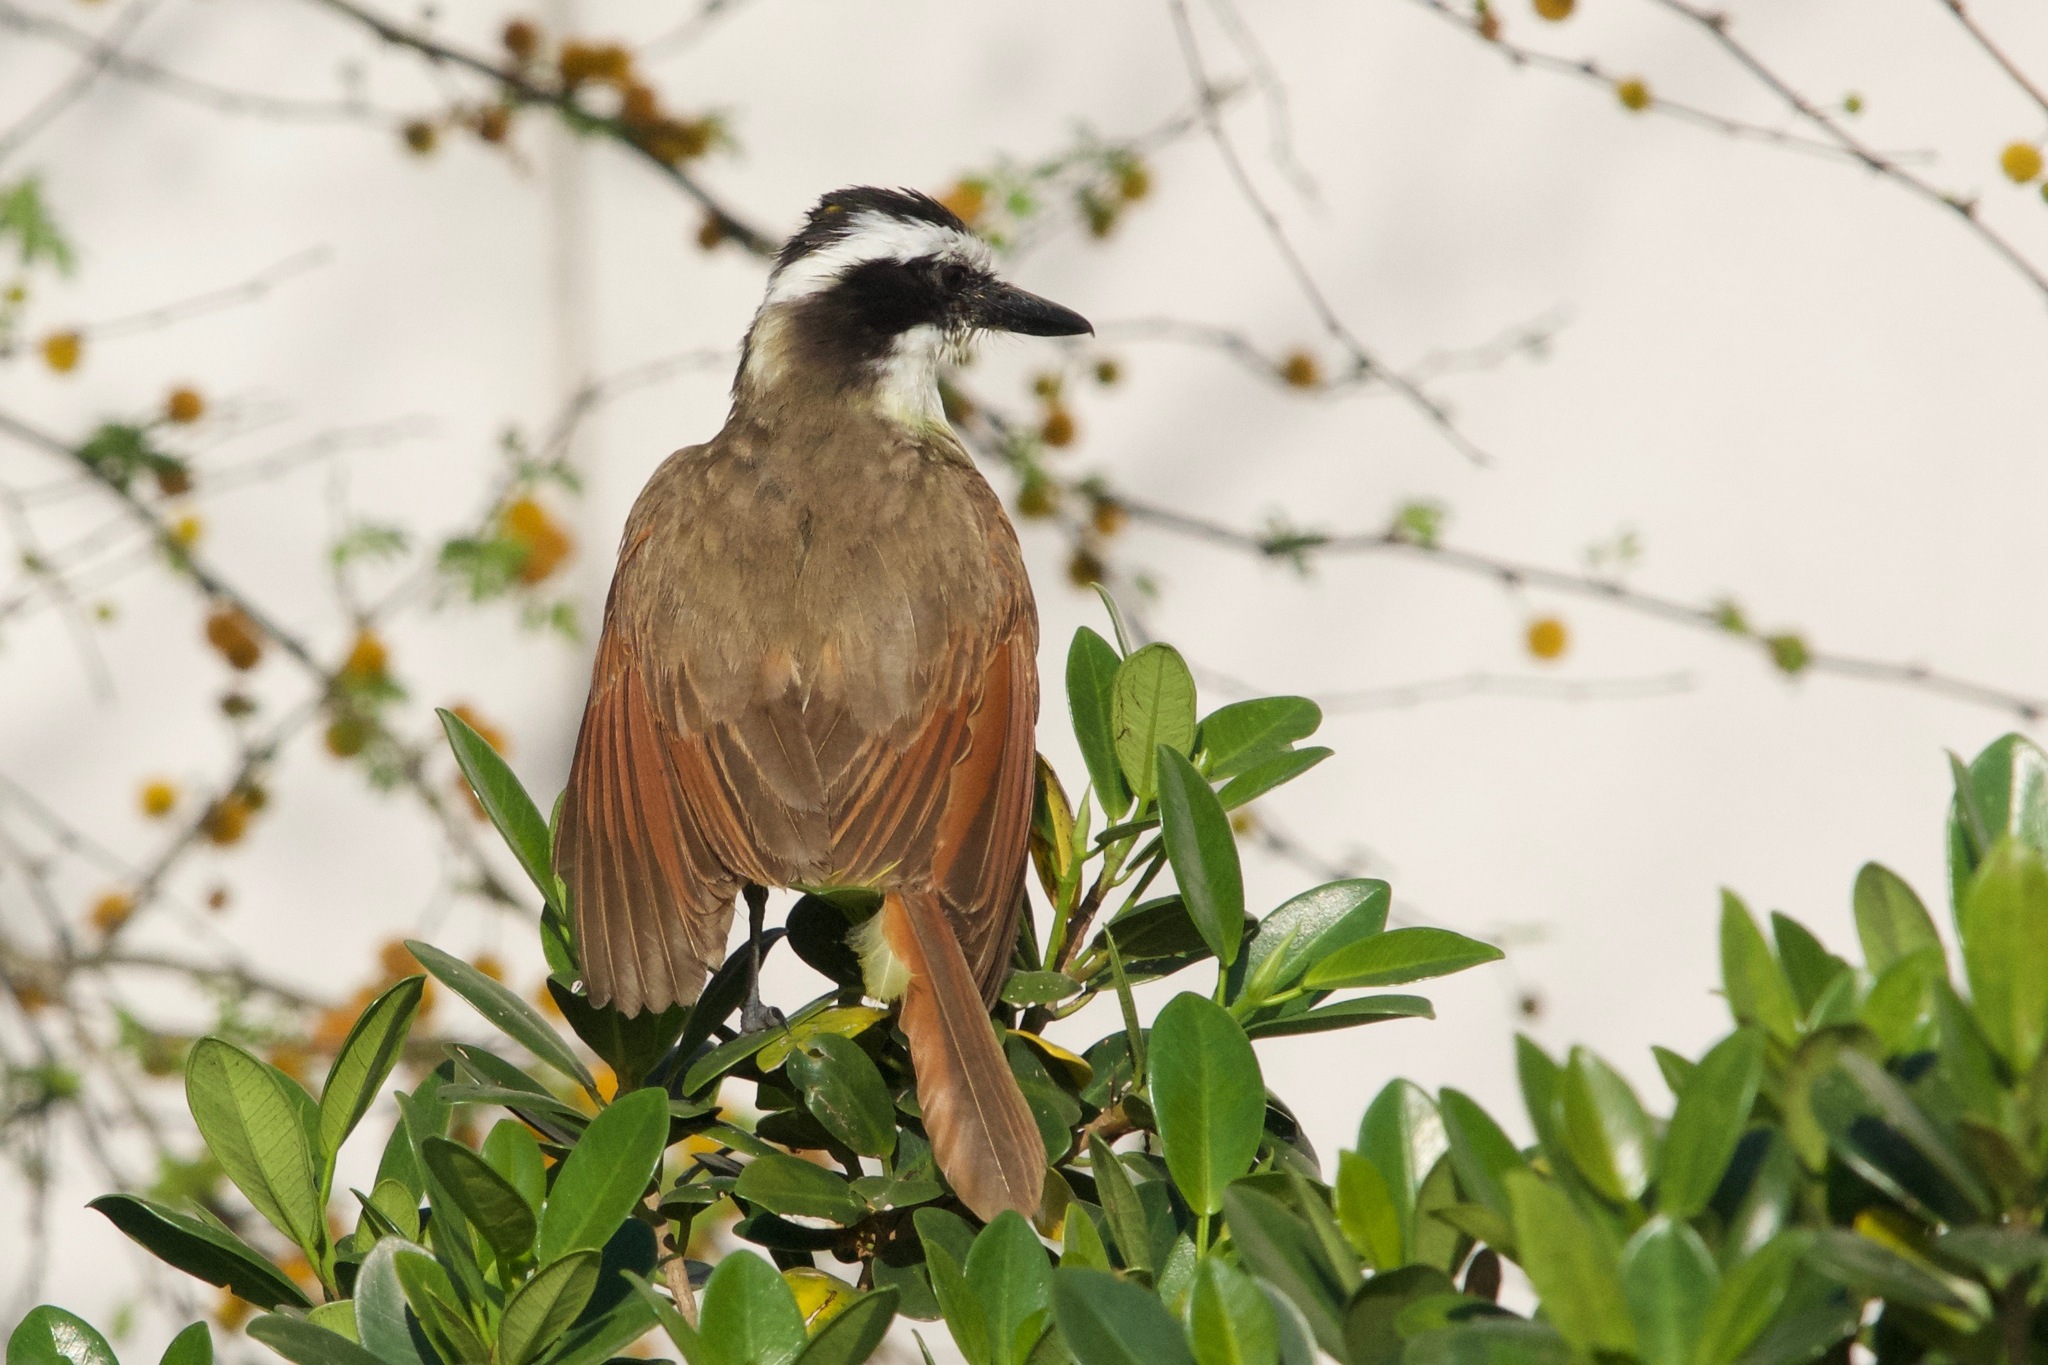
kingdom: Animalia
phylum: Chordata
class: Aves
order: Passeriformes
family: Tyrannidae
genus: Pitangus
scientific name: Pitangus sulphuratus
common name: Great kiskadee
